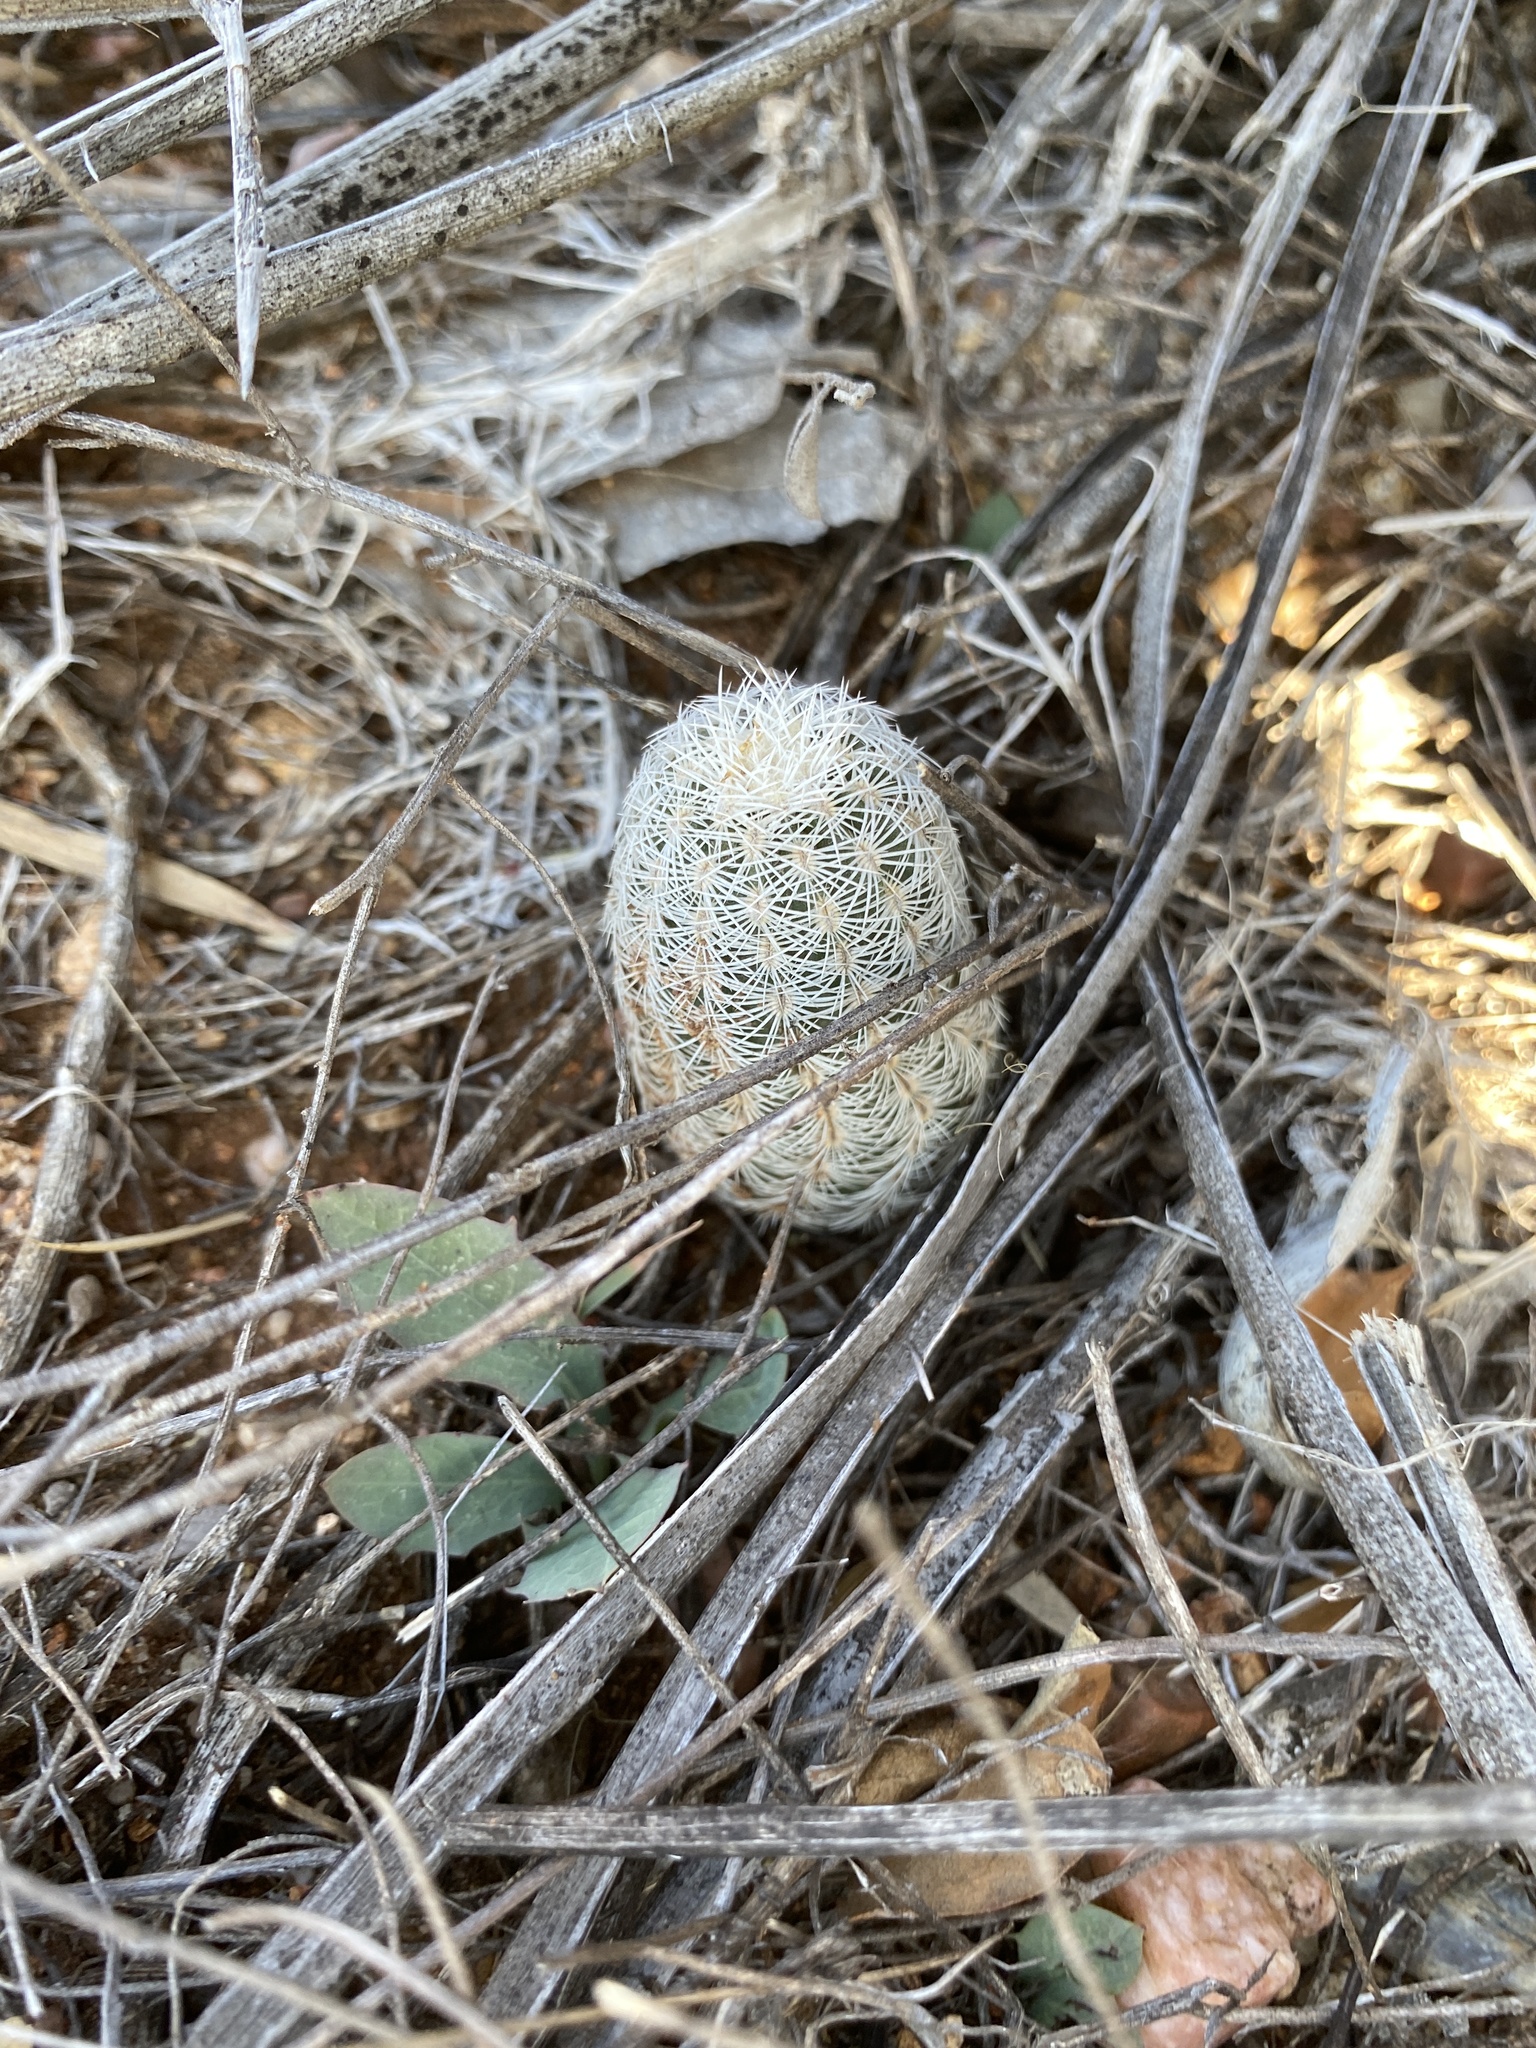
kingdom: Plantae
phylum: Tracheophyta
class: Magnoliopsida
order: Caryophyllales
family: Cactaceae
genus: Echinocereus
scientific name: Echinocereus reichenbachii
